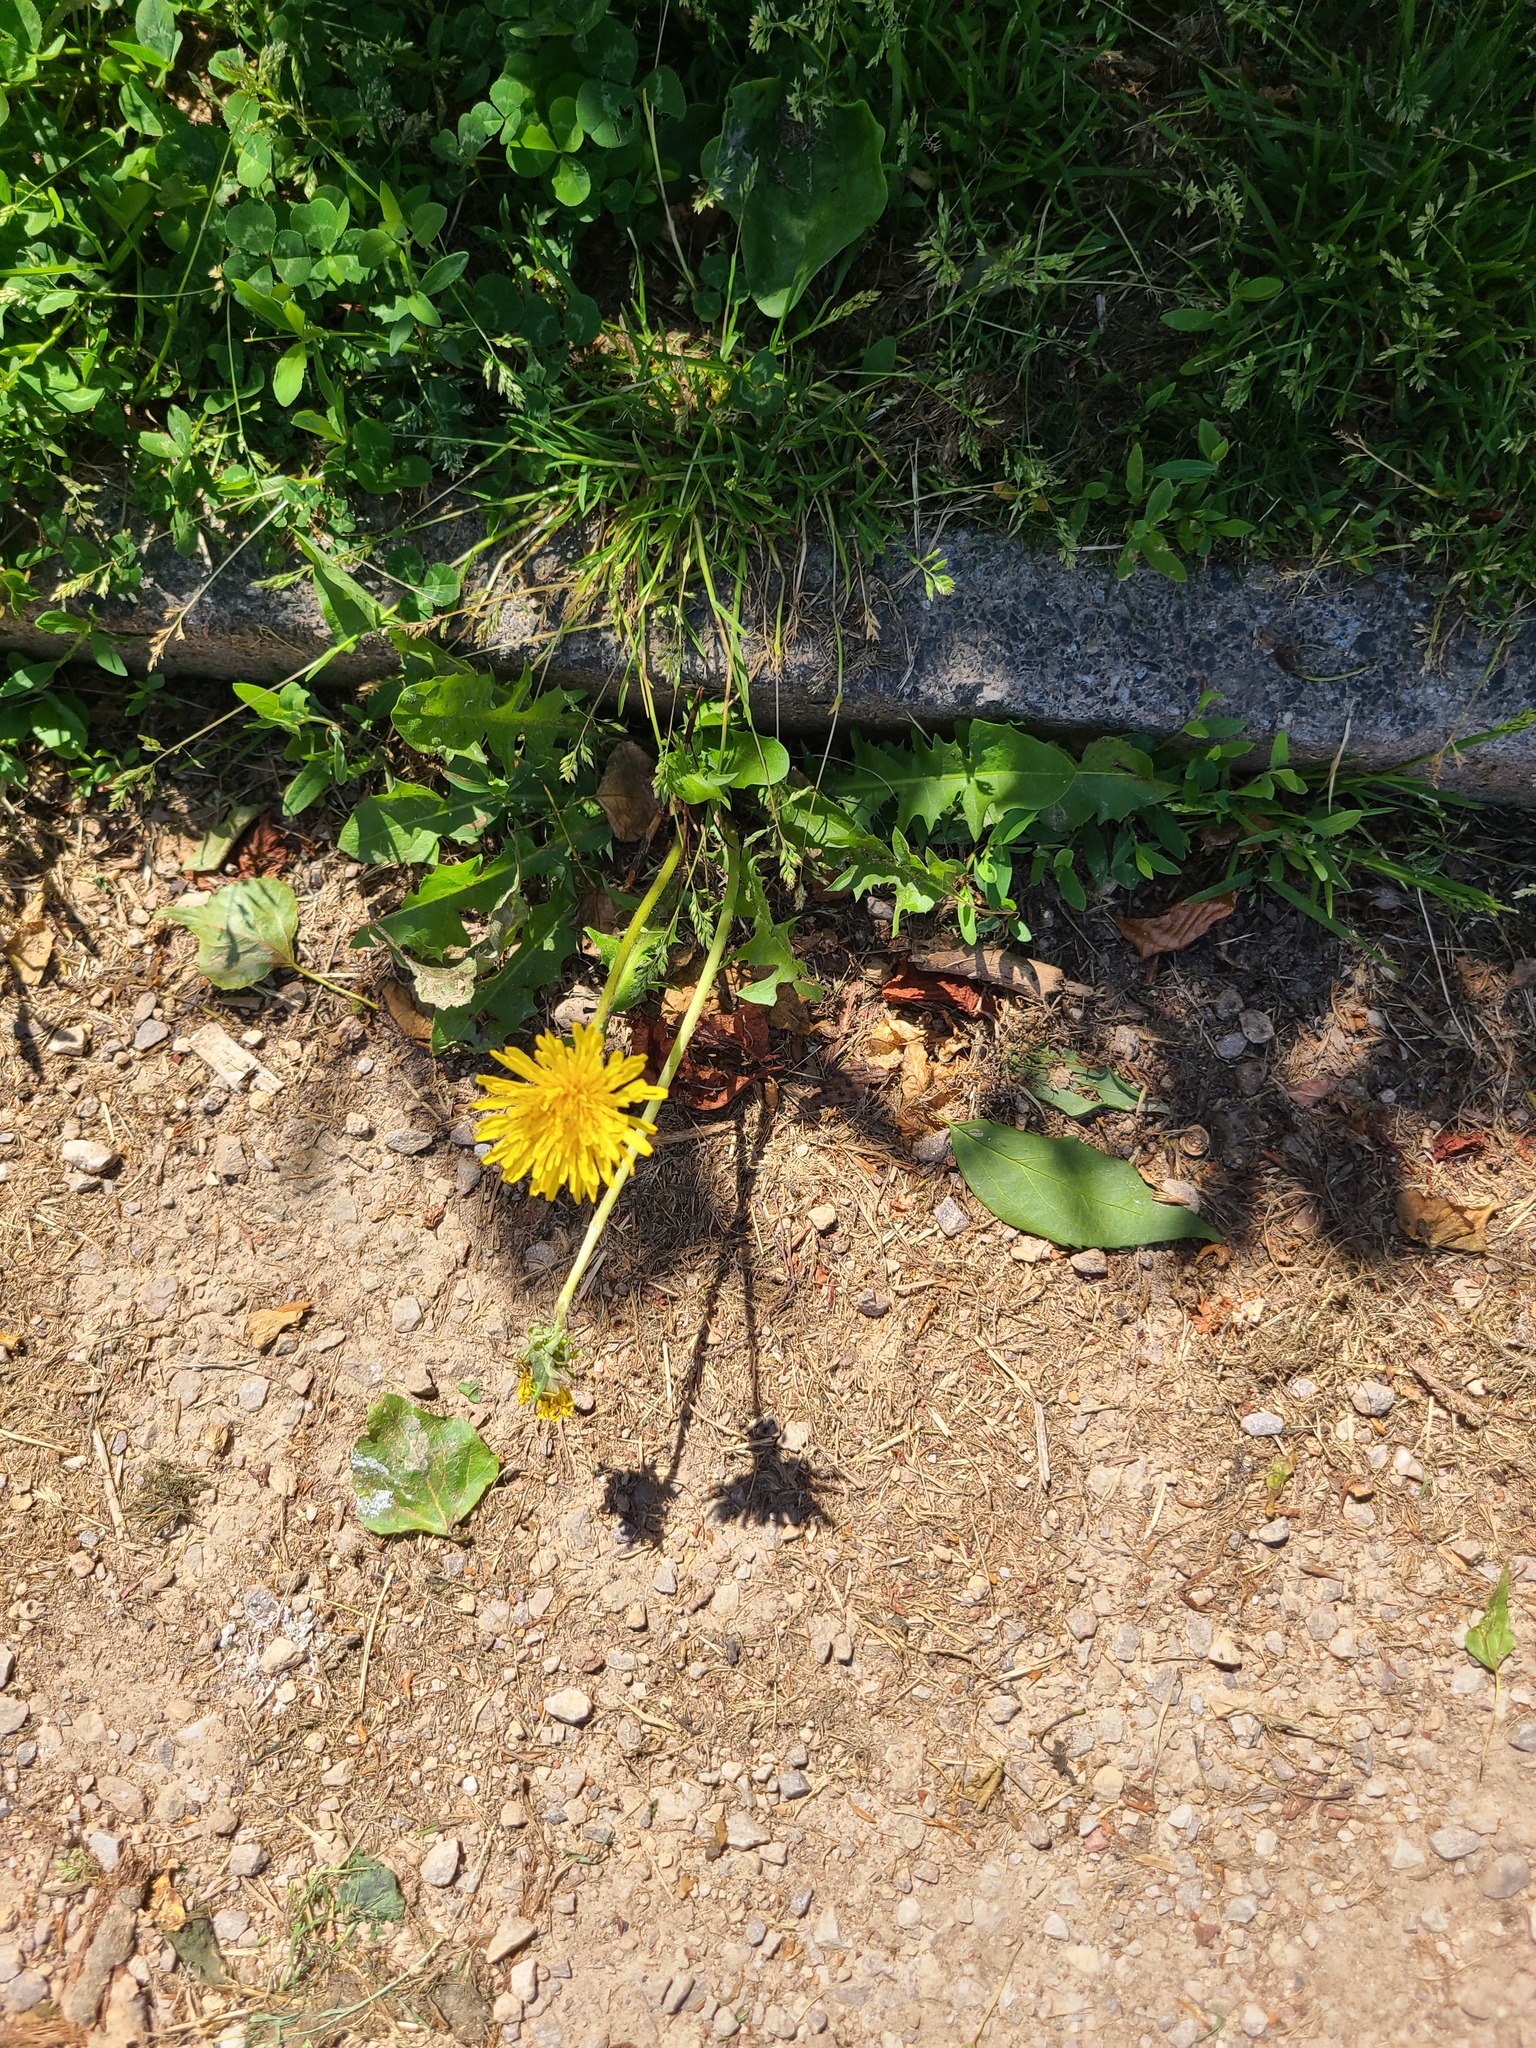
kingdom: Plantae
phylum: Tracheophyta
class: Magnoliopsida
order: Asterales
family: Asteraceae
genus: Taraxacum
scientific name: Taraxacum officinale
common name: Common dandelion
